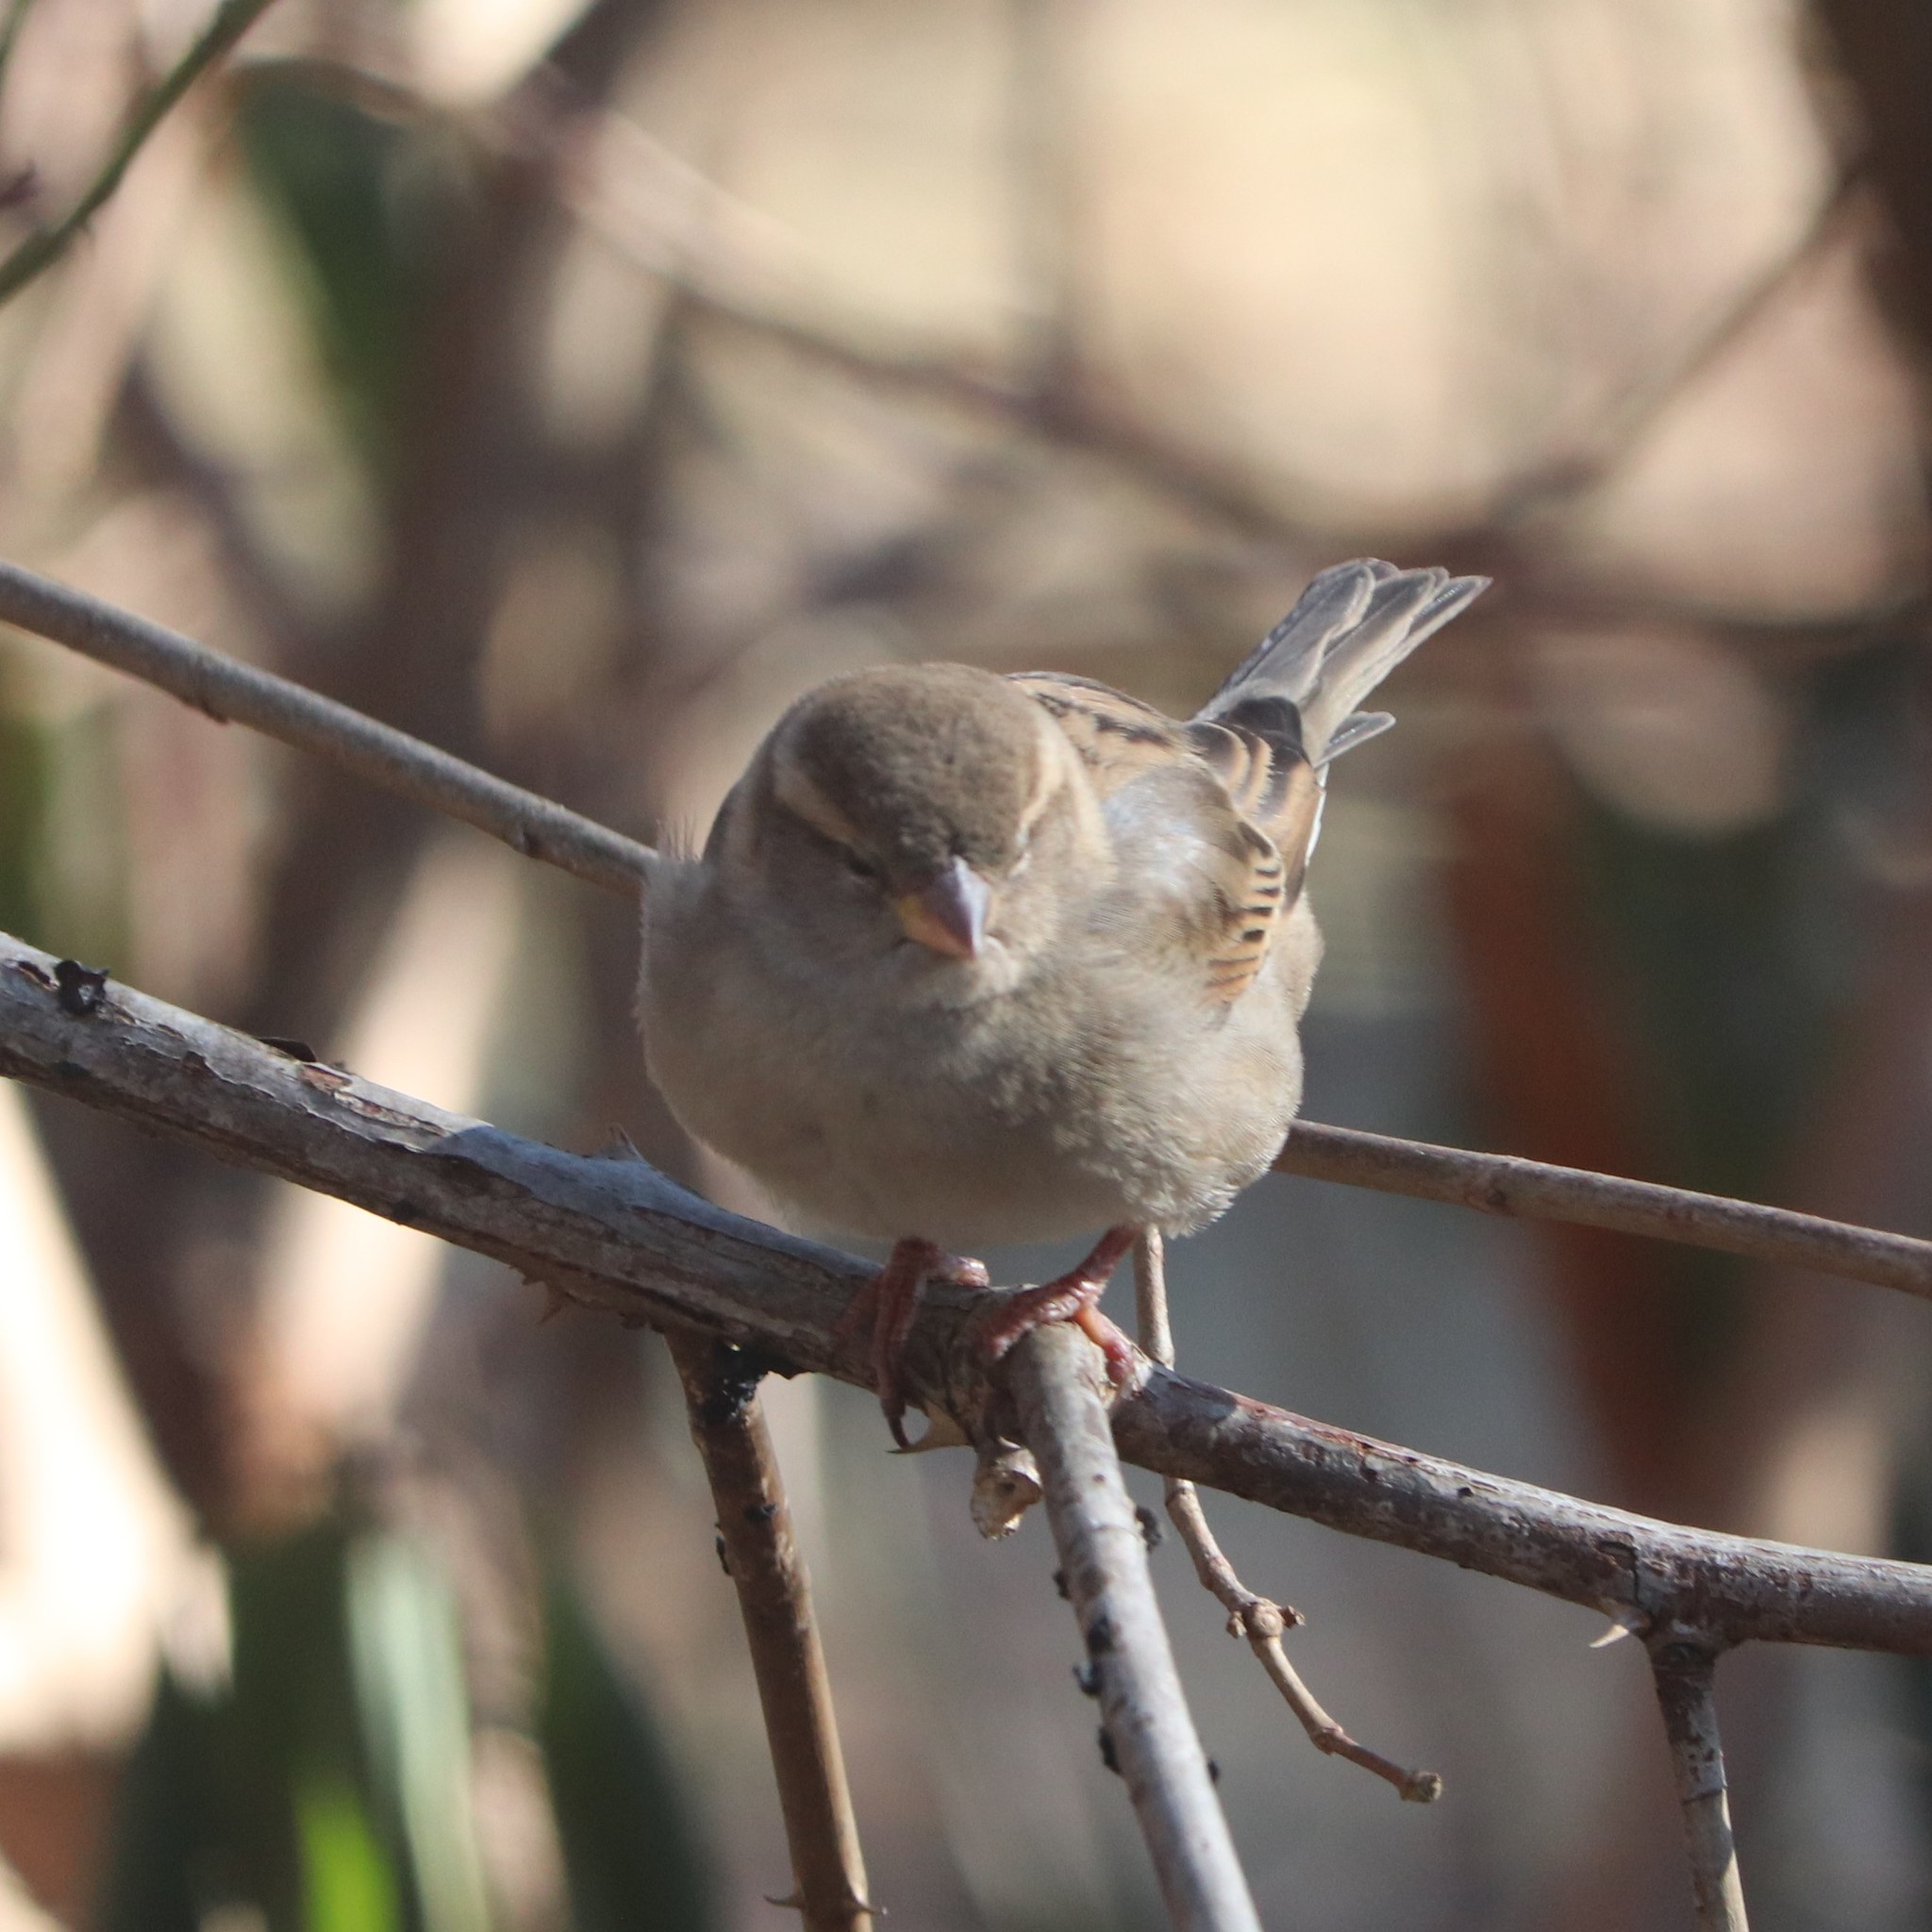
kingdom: Animalia
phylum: Chordata
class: Aves
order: Passeriformes
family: Passeridae
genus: Passer
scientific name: Passer domesticus
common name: House sparrow
